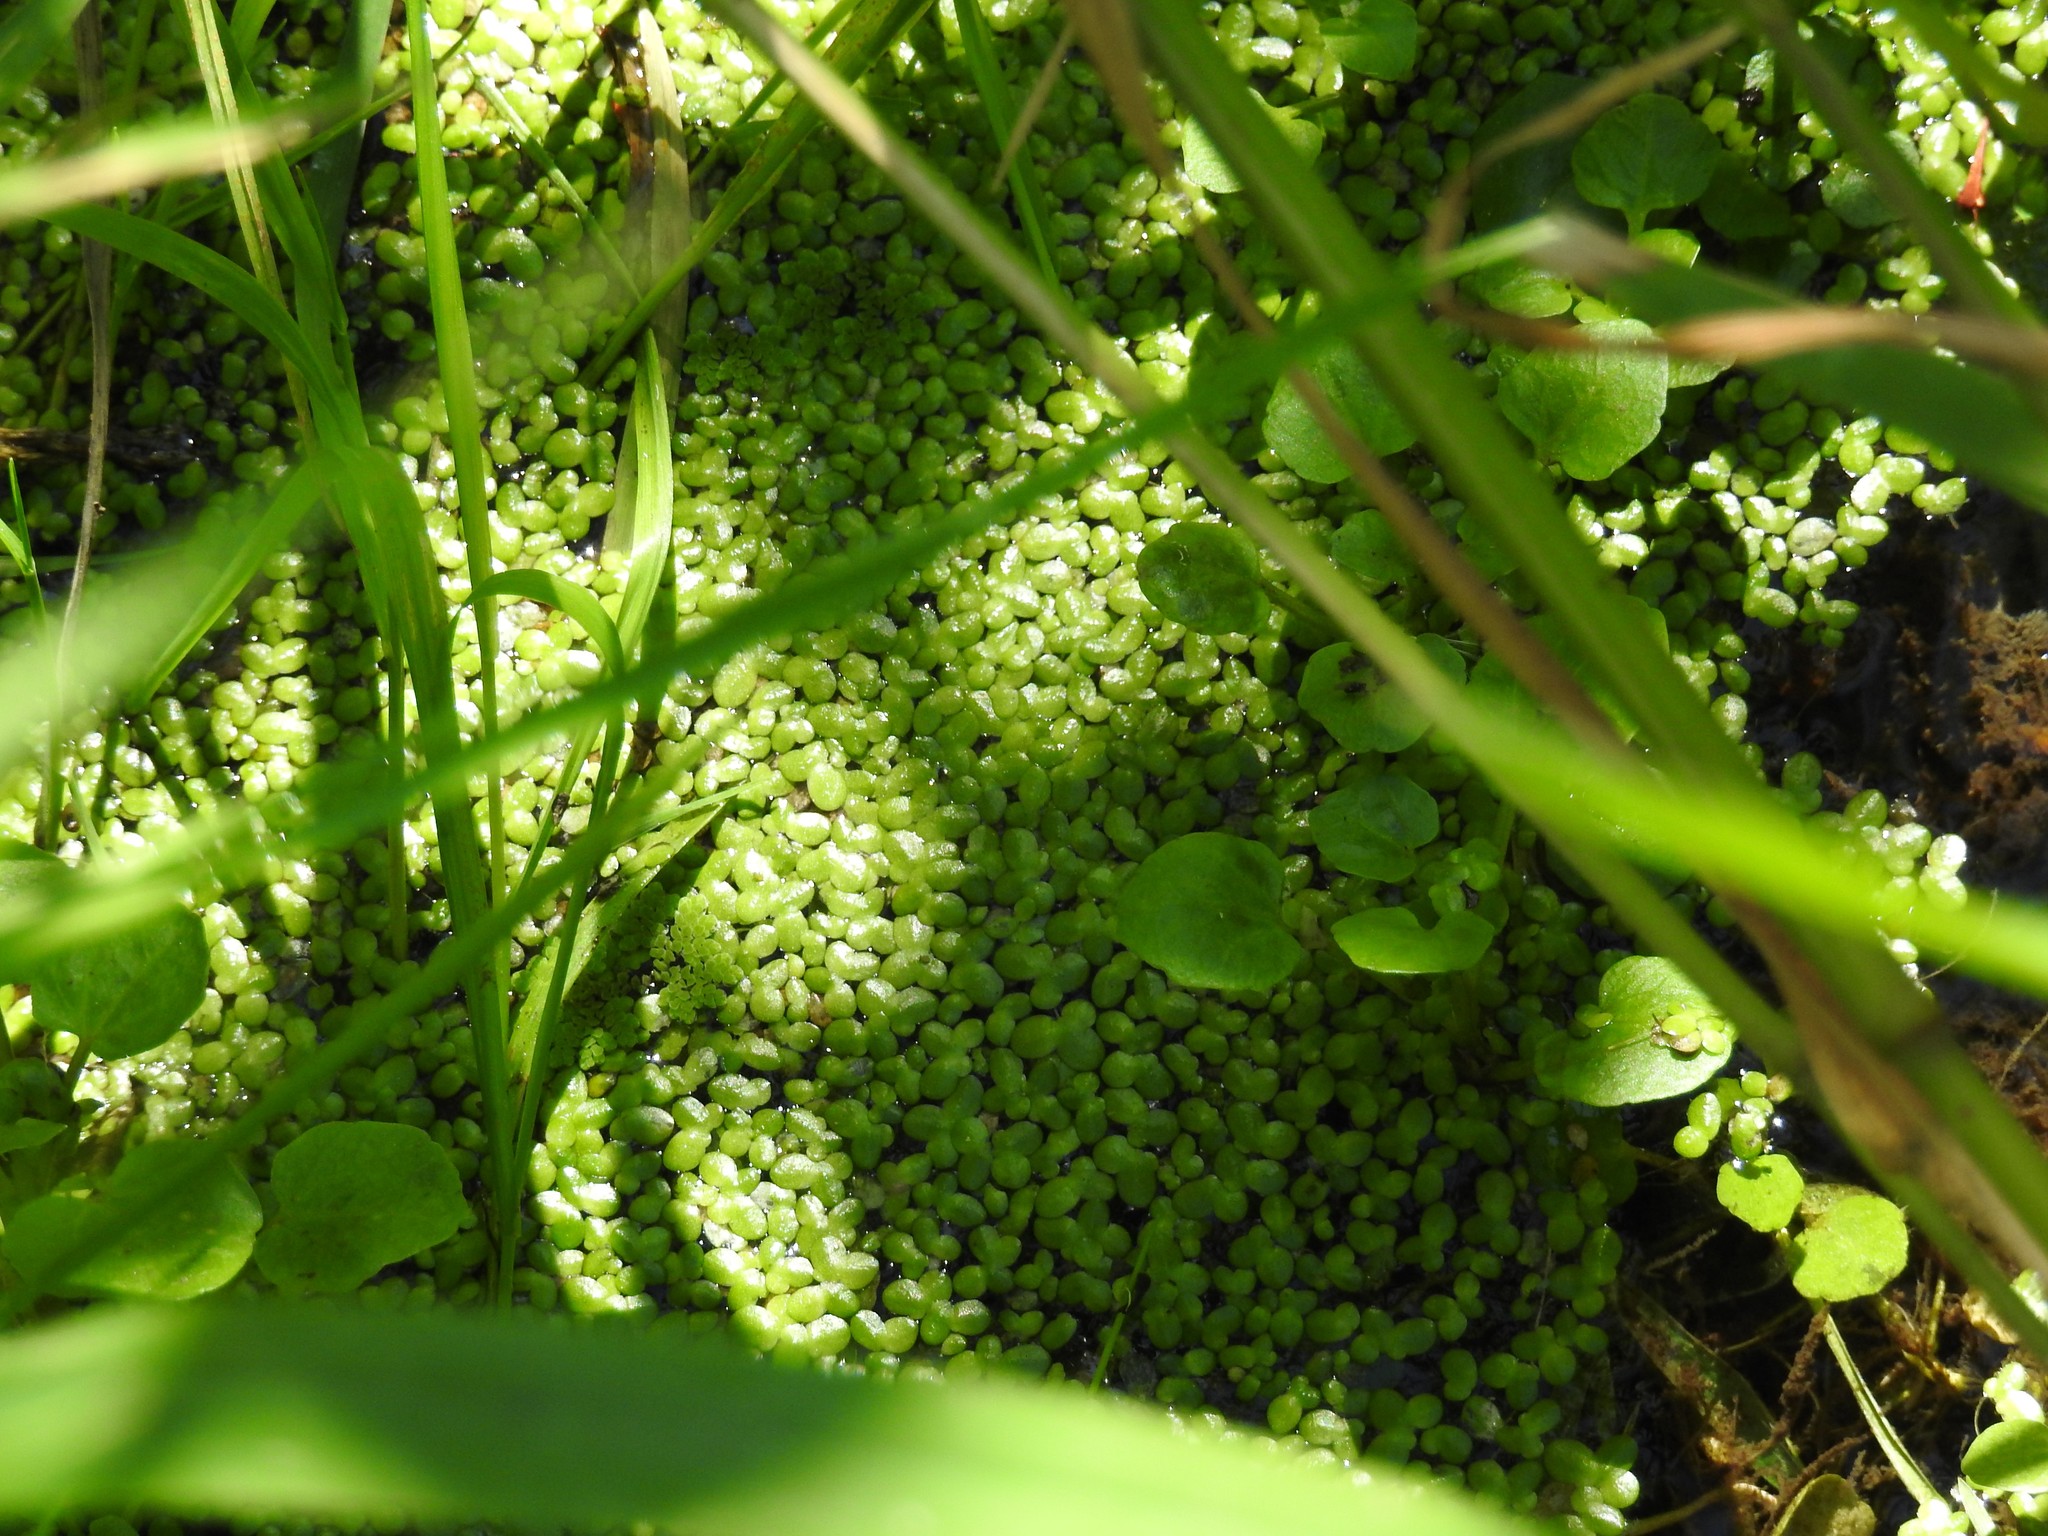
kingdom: Plantae
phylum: Tracheophyta
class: Liliopsida
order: Alismatales
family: Araceae
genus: Lemna
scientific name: Lemna turionifera
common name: Perennial duckweed
